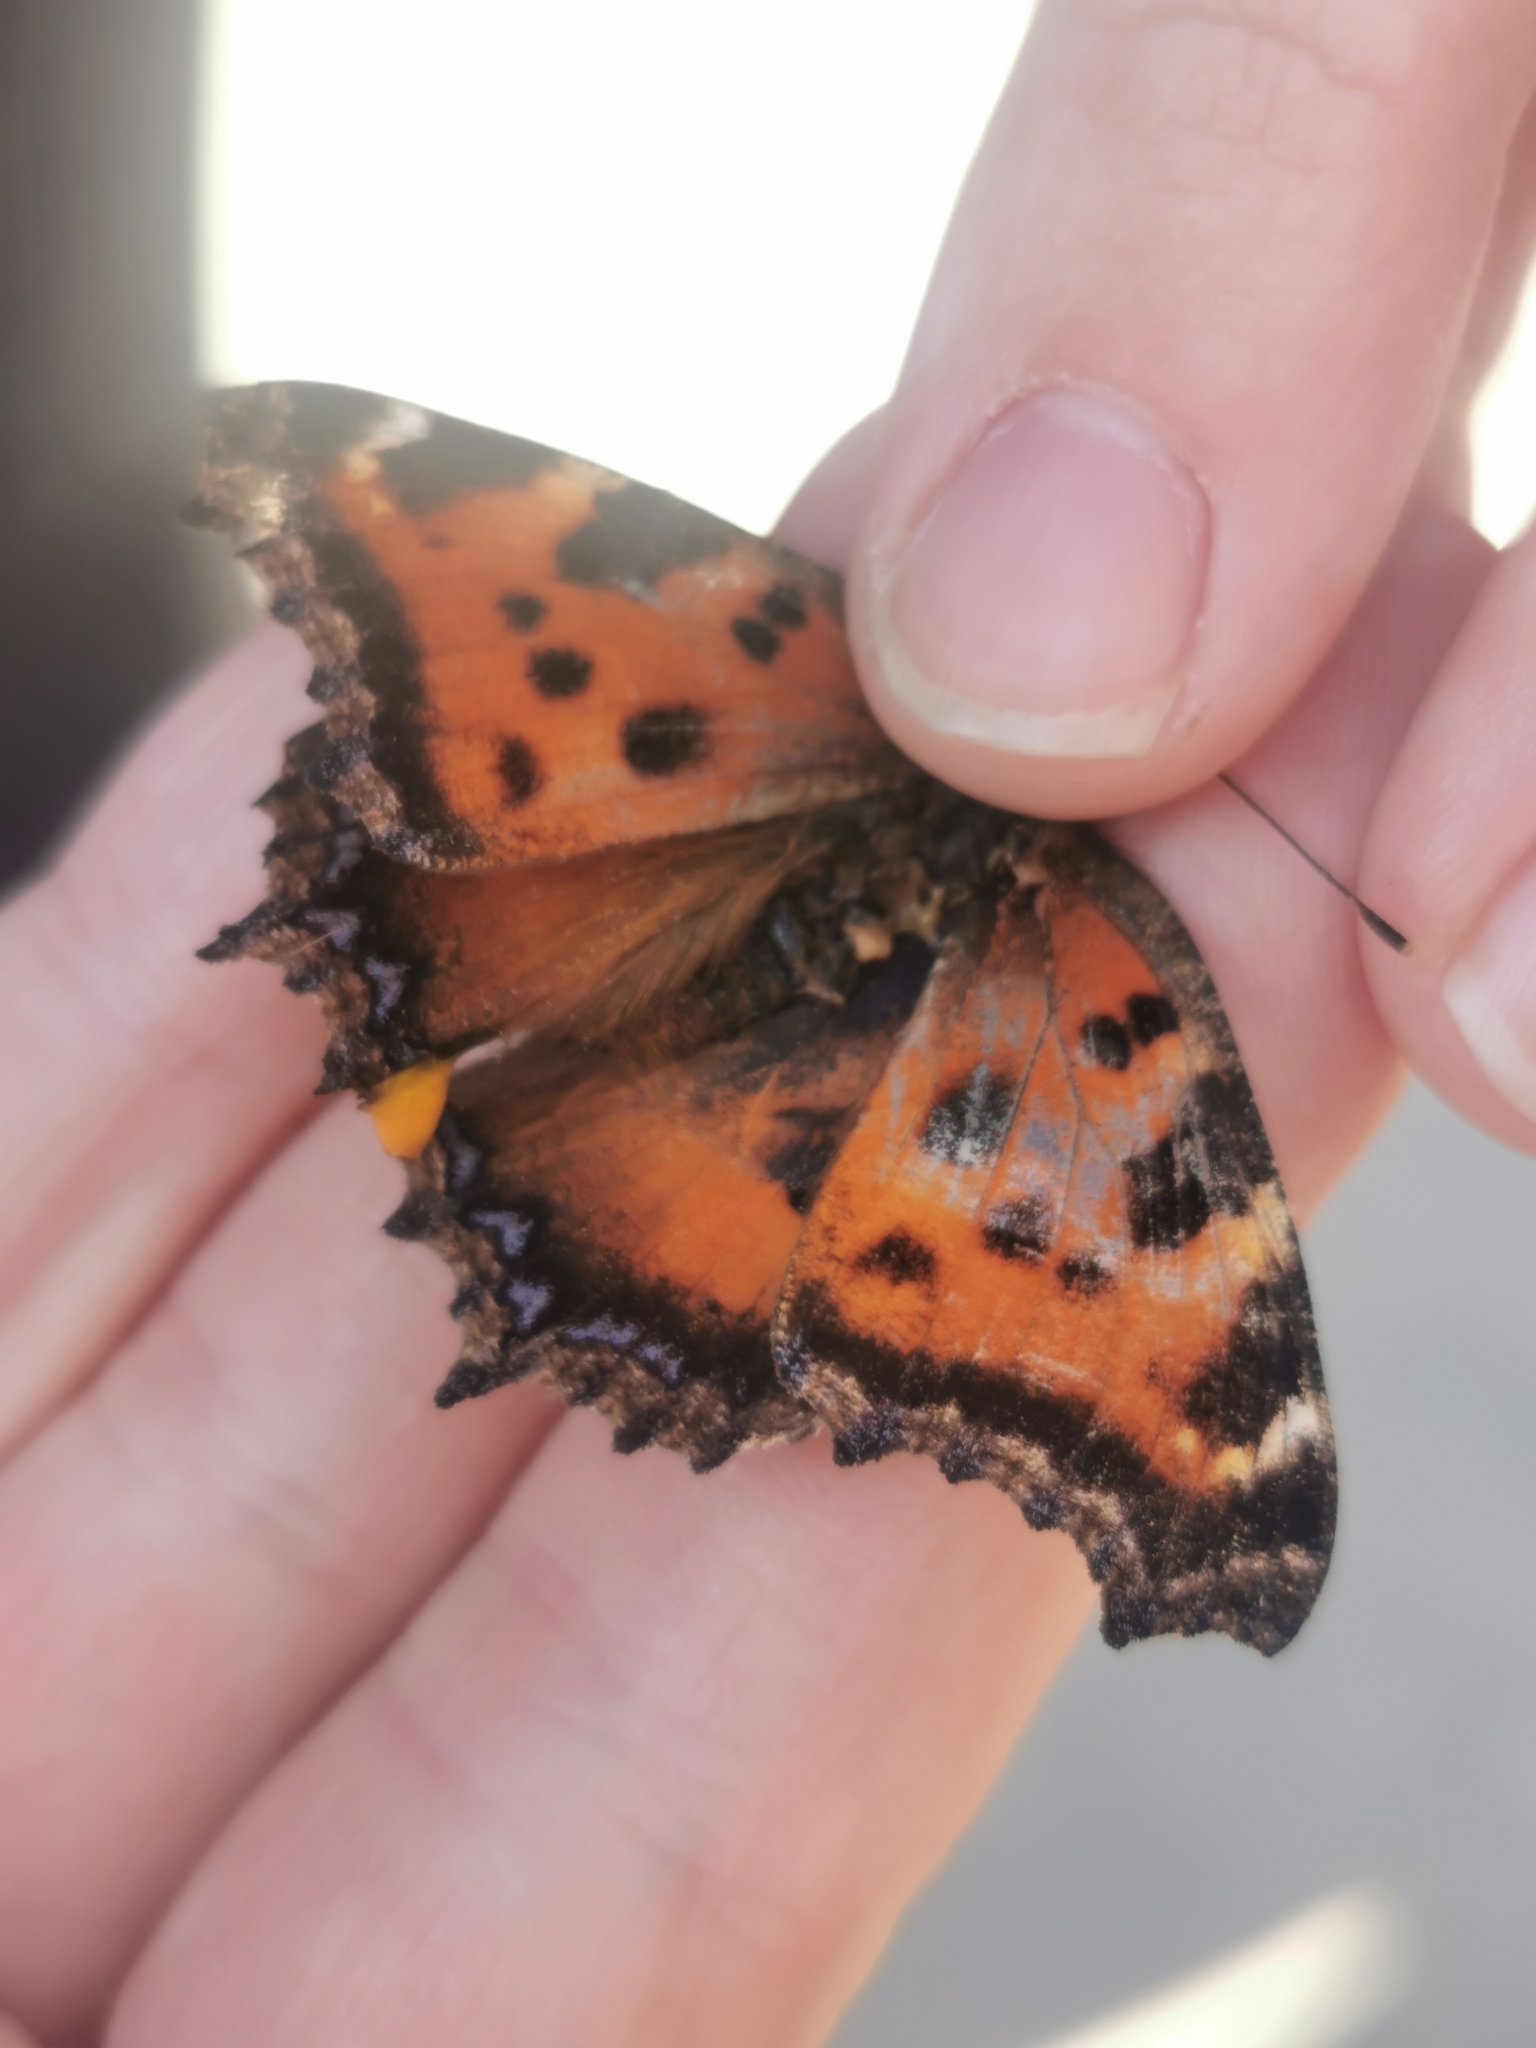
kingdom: Animalia
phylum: Arthropoda
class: Insecta
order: Lepidoptera
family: Nymphalidae
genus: Nymphalis
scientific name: Nymphalis xanthomelas
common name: Scarce tortoiseshell
